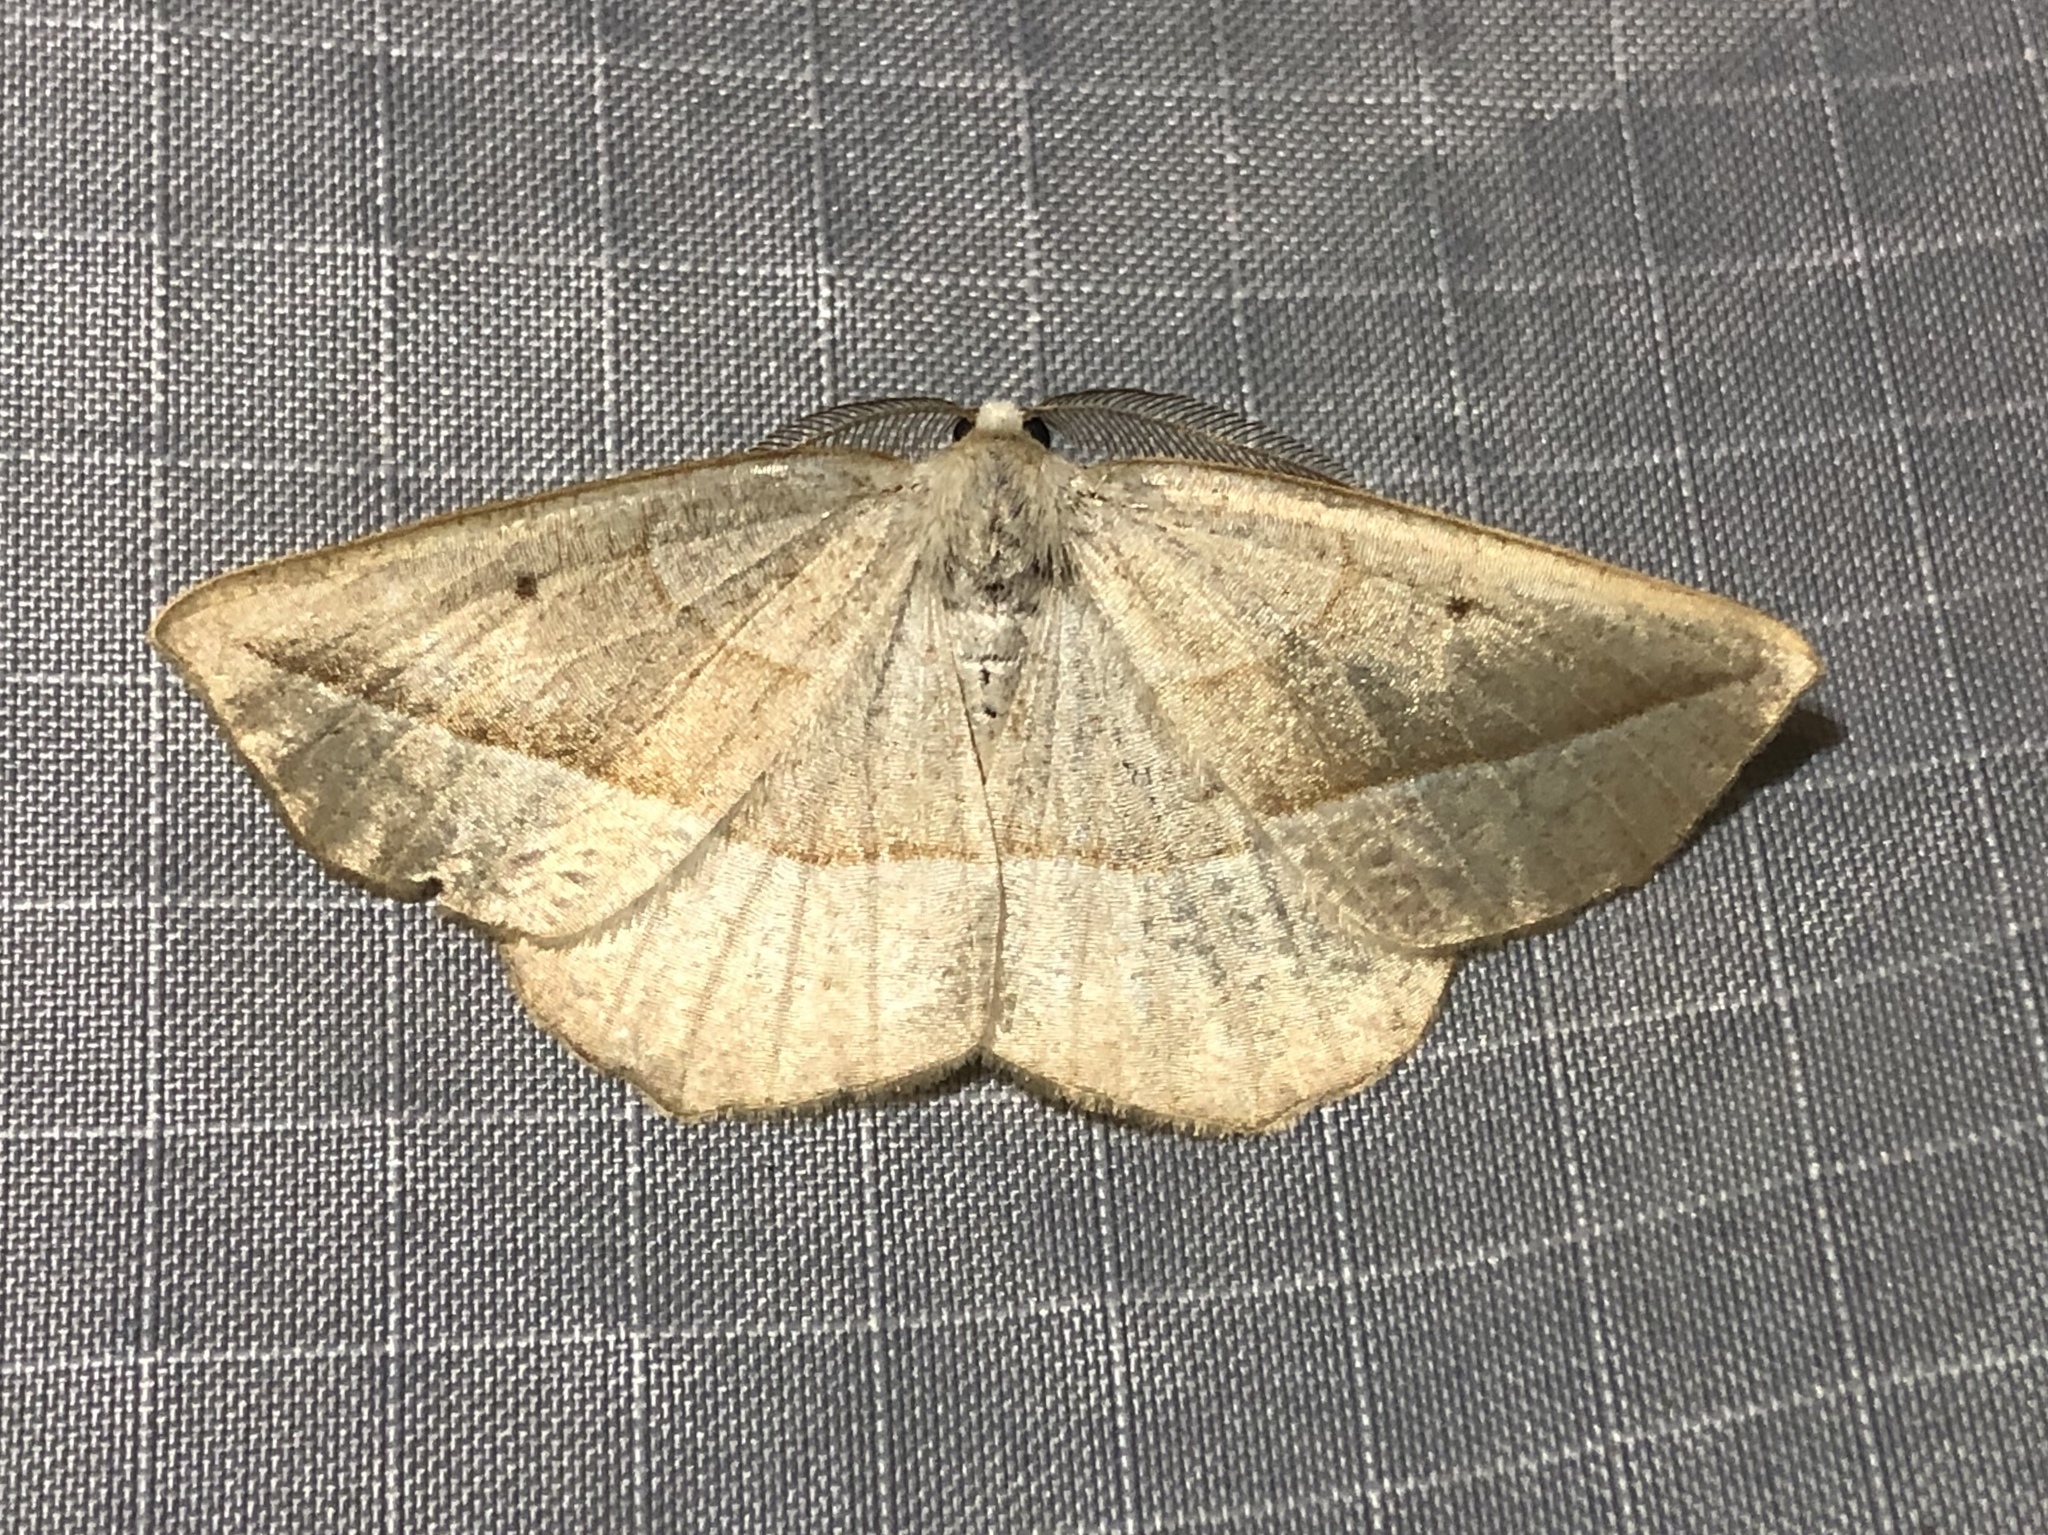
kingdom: Animalia
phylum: Arthropoda
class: Insecta
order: Lepidoptera
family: Geometridae
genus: Eusarca
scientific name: Eusarca confusaria
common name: Confused eusarca
